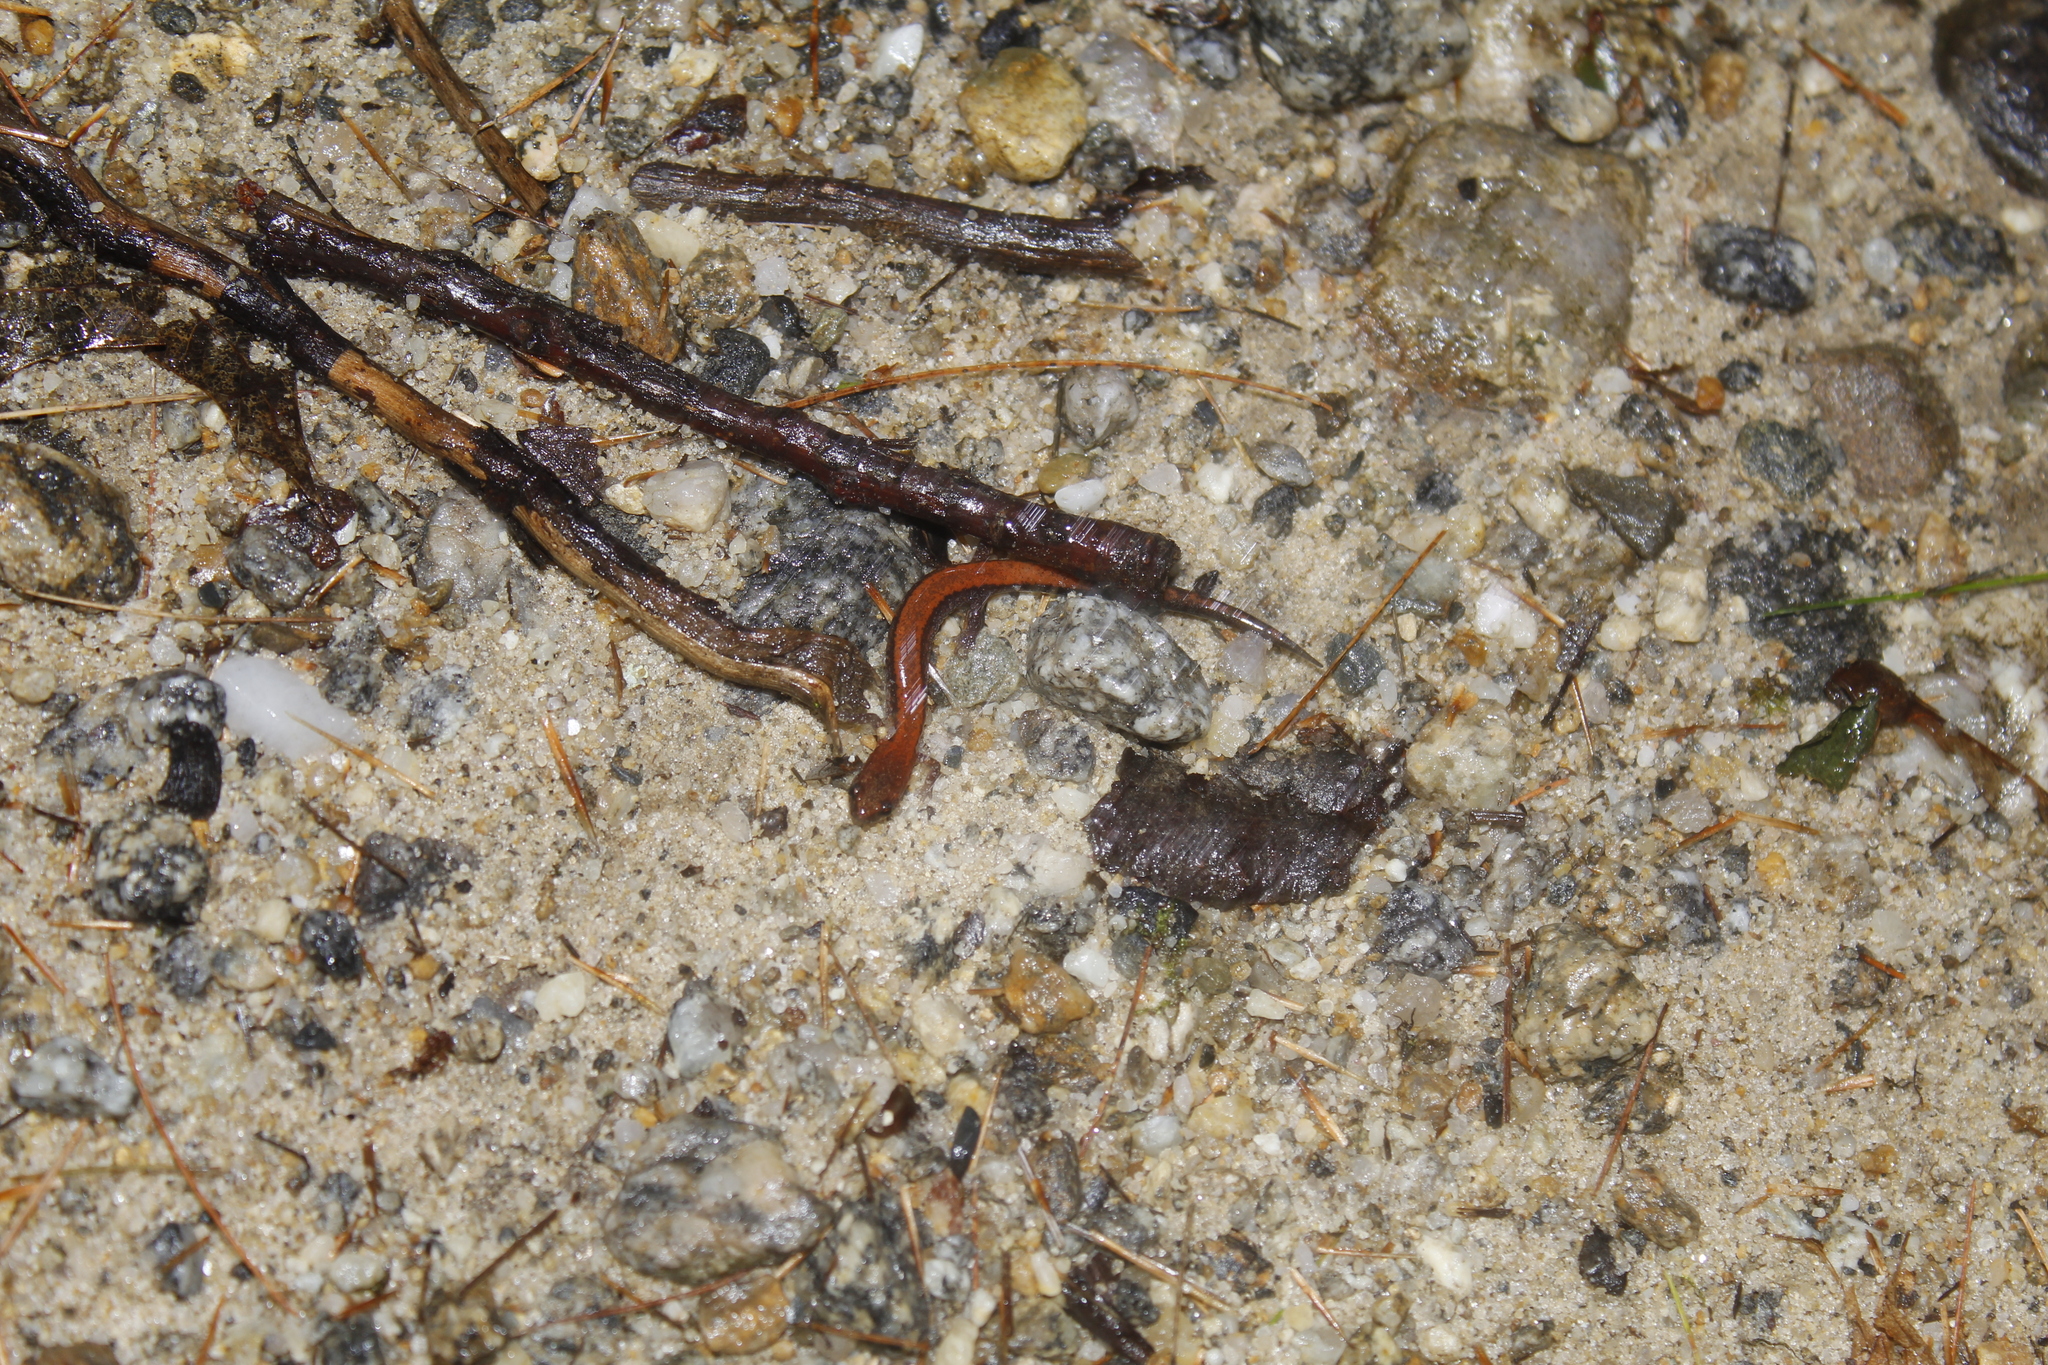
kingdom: Animalia
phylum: Chordata
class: Amphibia
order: Caudata
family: Plethodontidae
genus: Plethodon
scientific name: Plethodon cinereus
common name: Redback salamander
